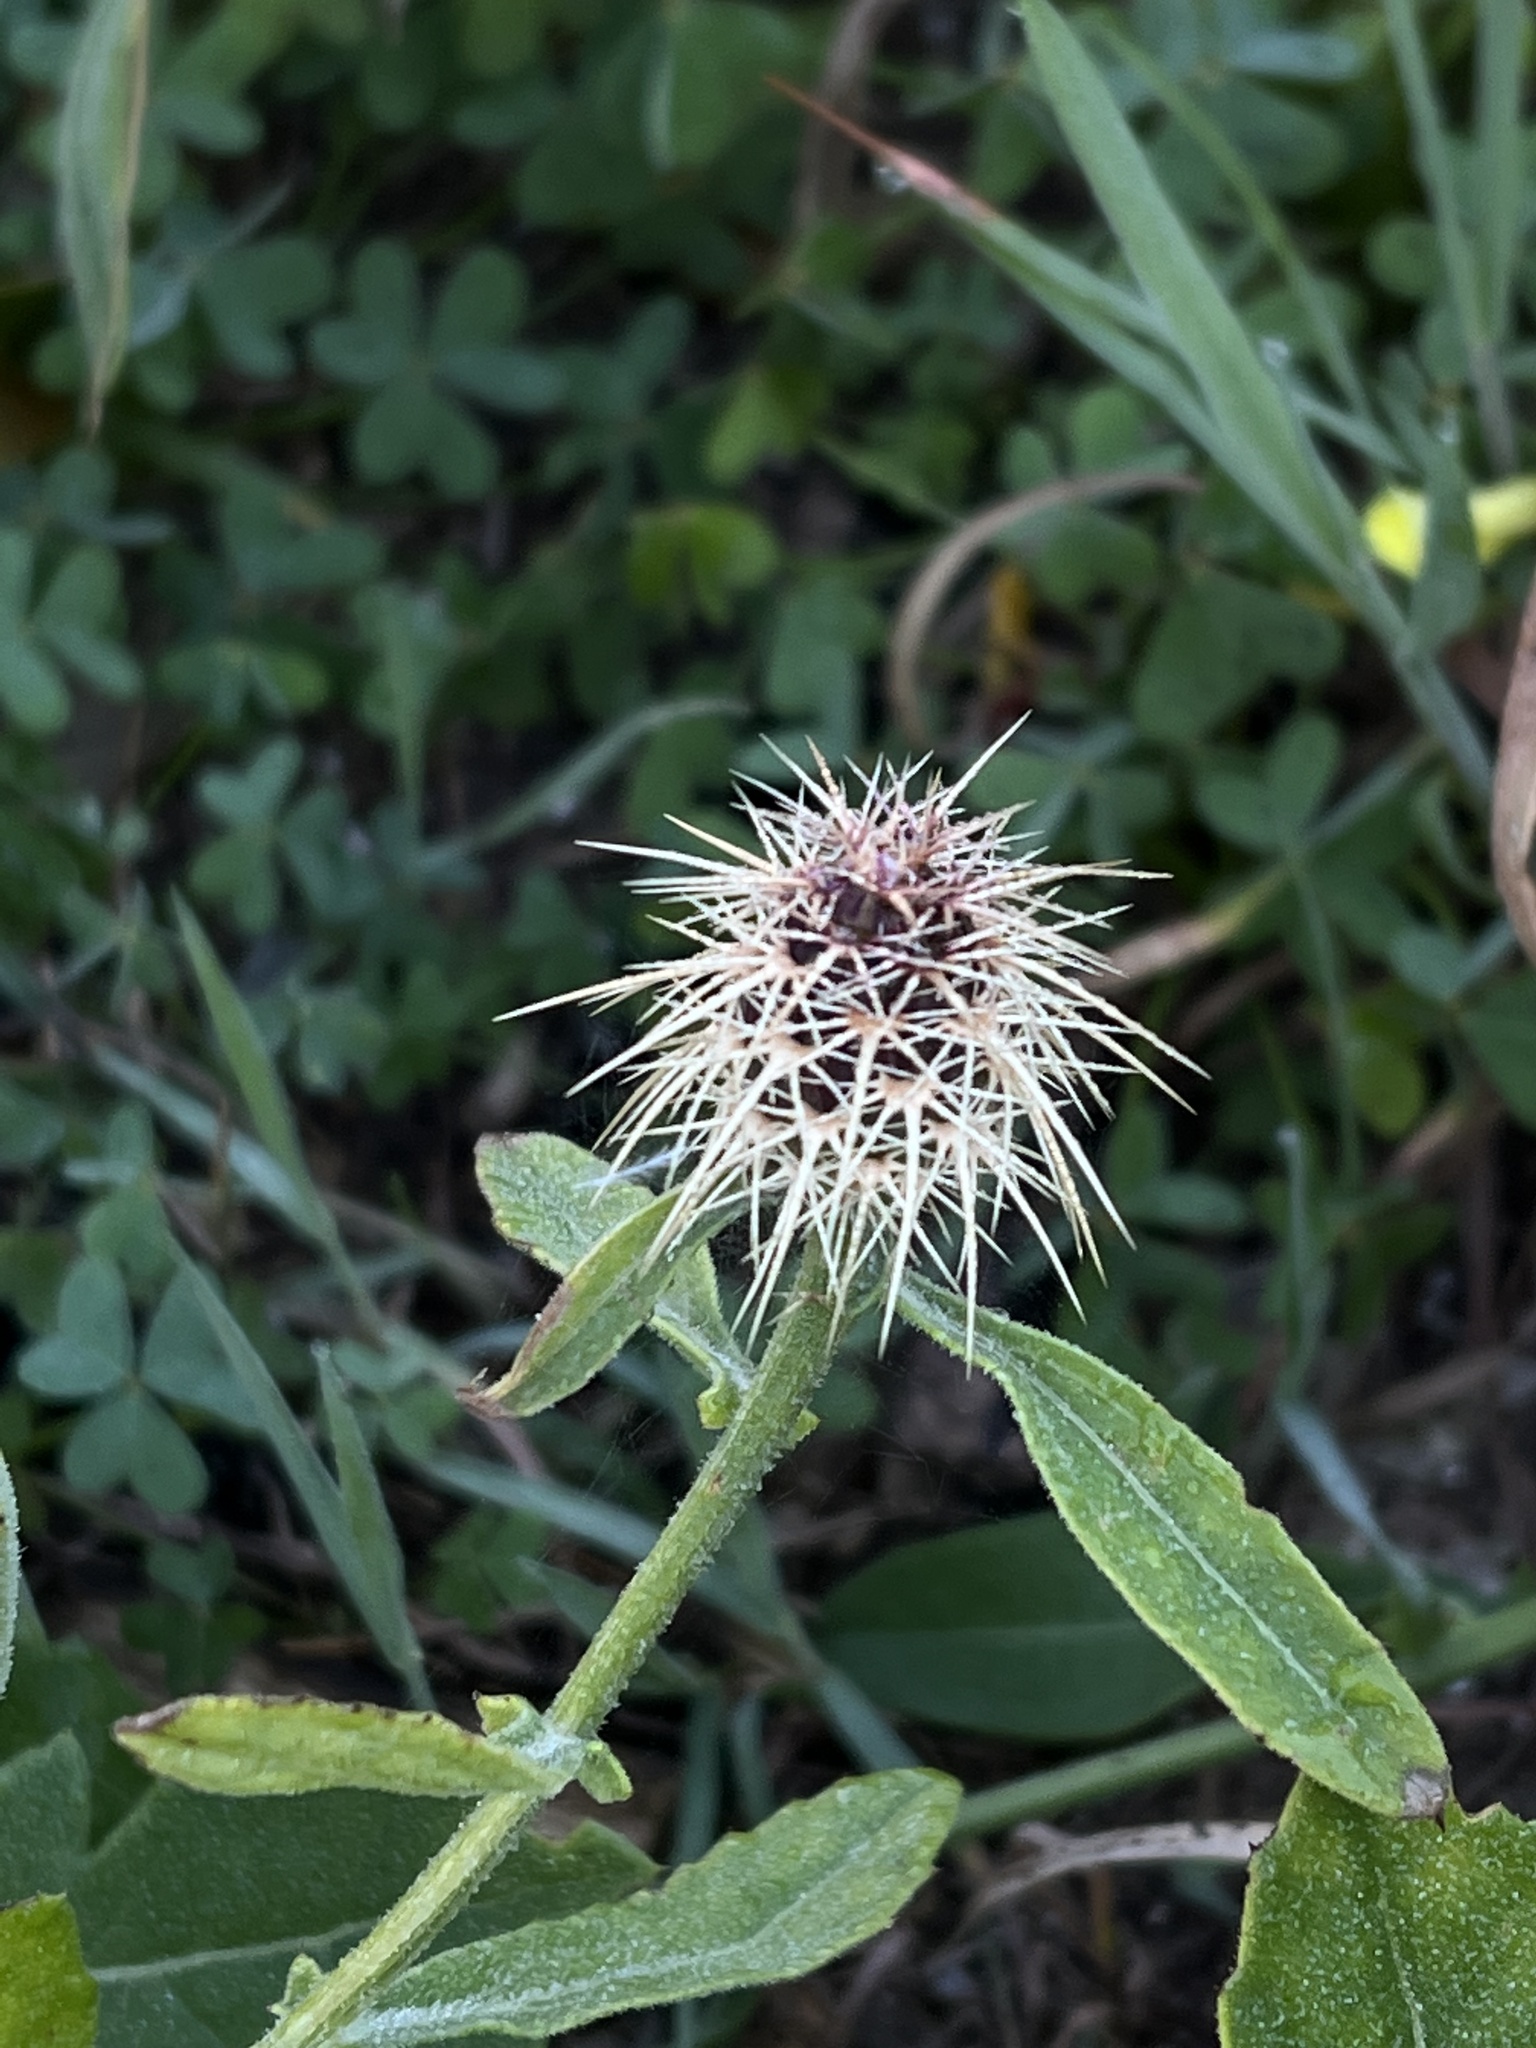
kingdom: Plantae
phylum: Tracheophyta
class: Magnoliopsida
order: Asterales
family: Asteraceae
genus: Centaurea
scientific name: Centaurea sphaerocephala
